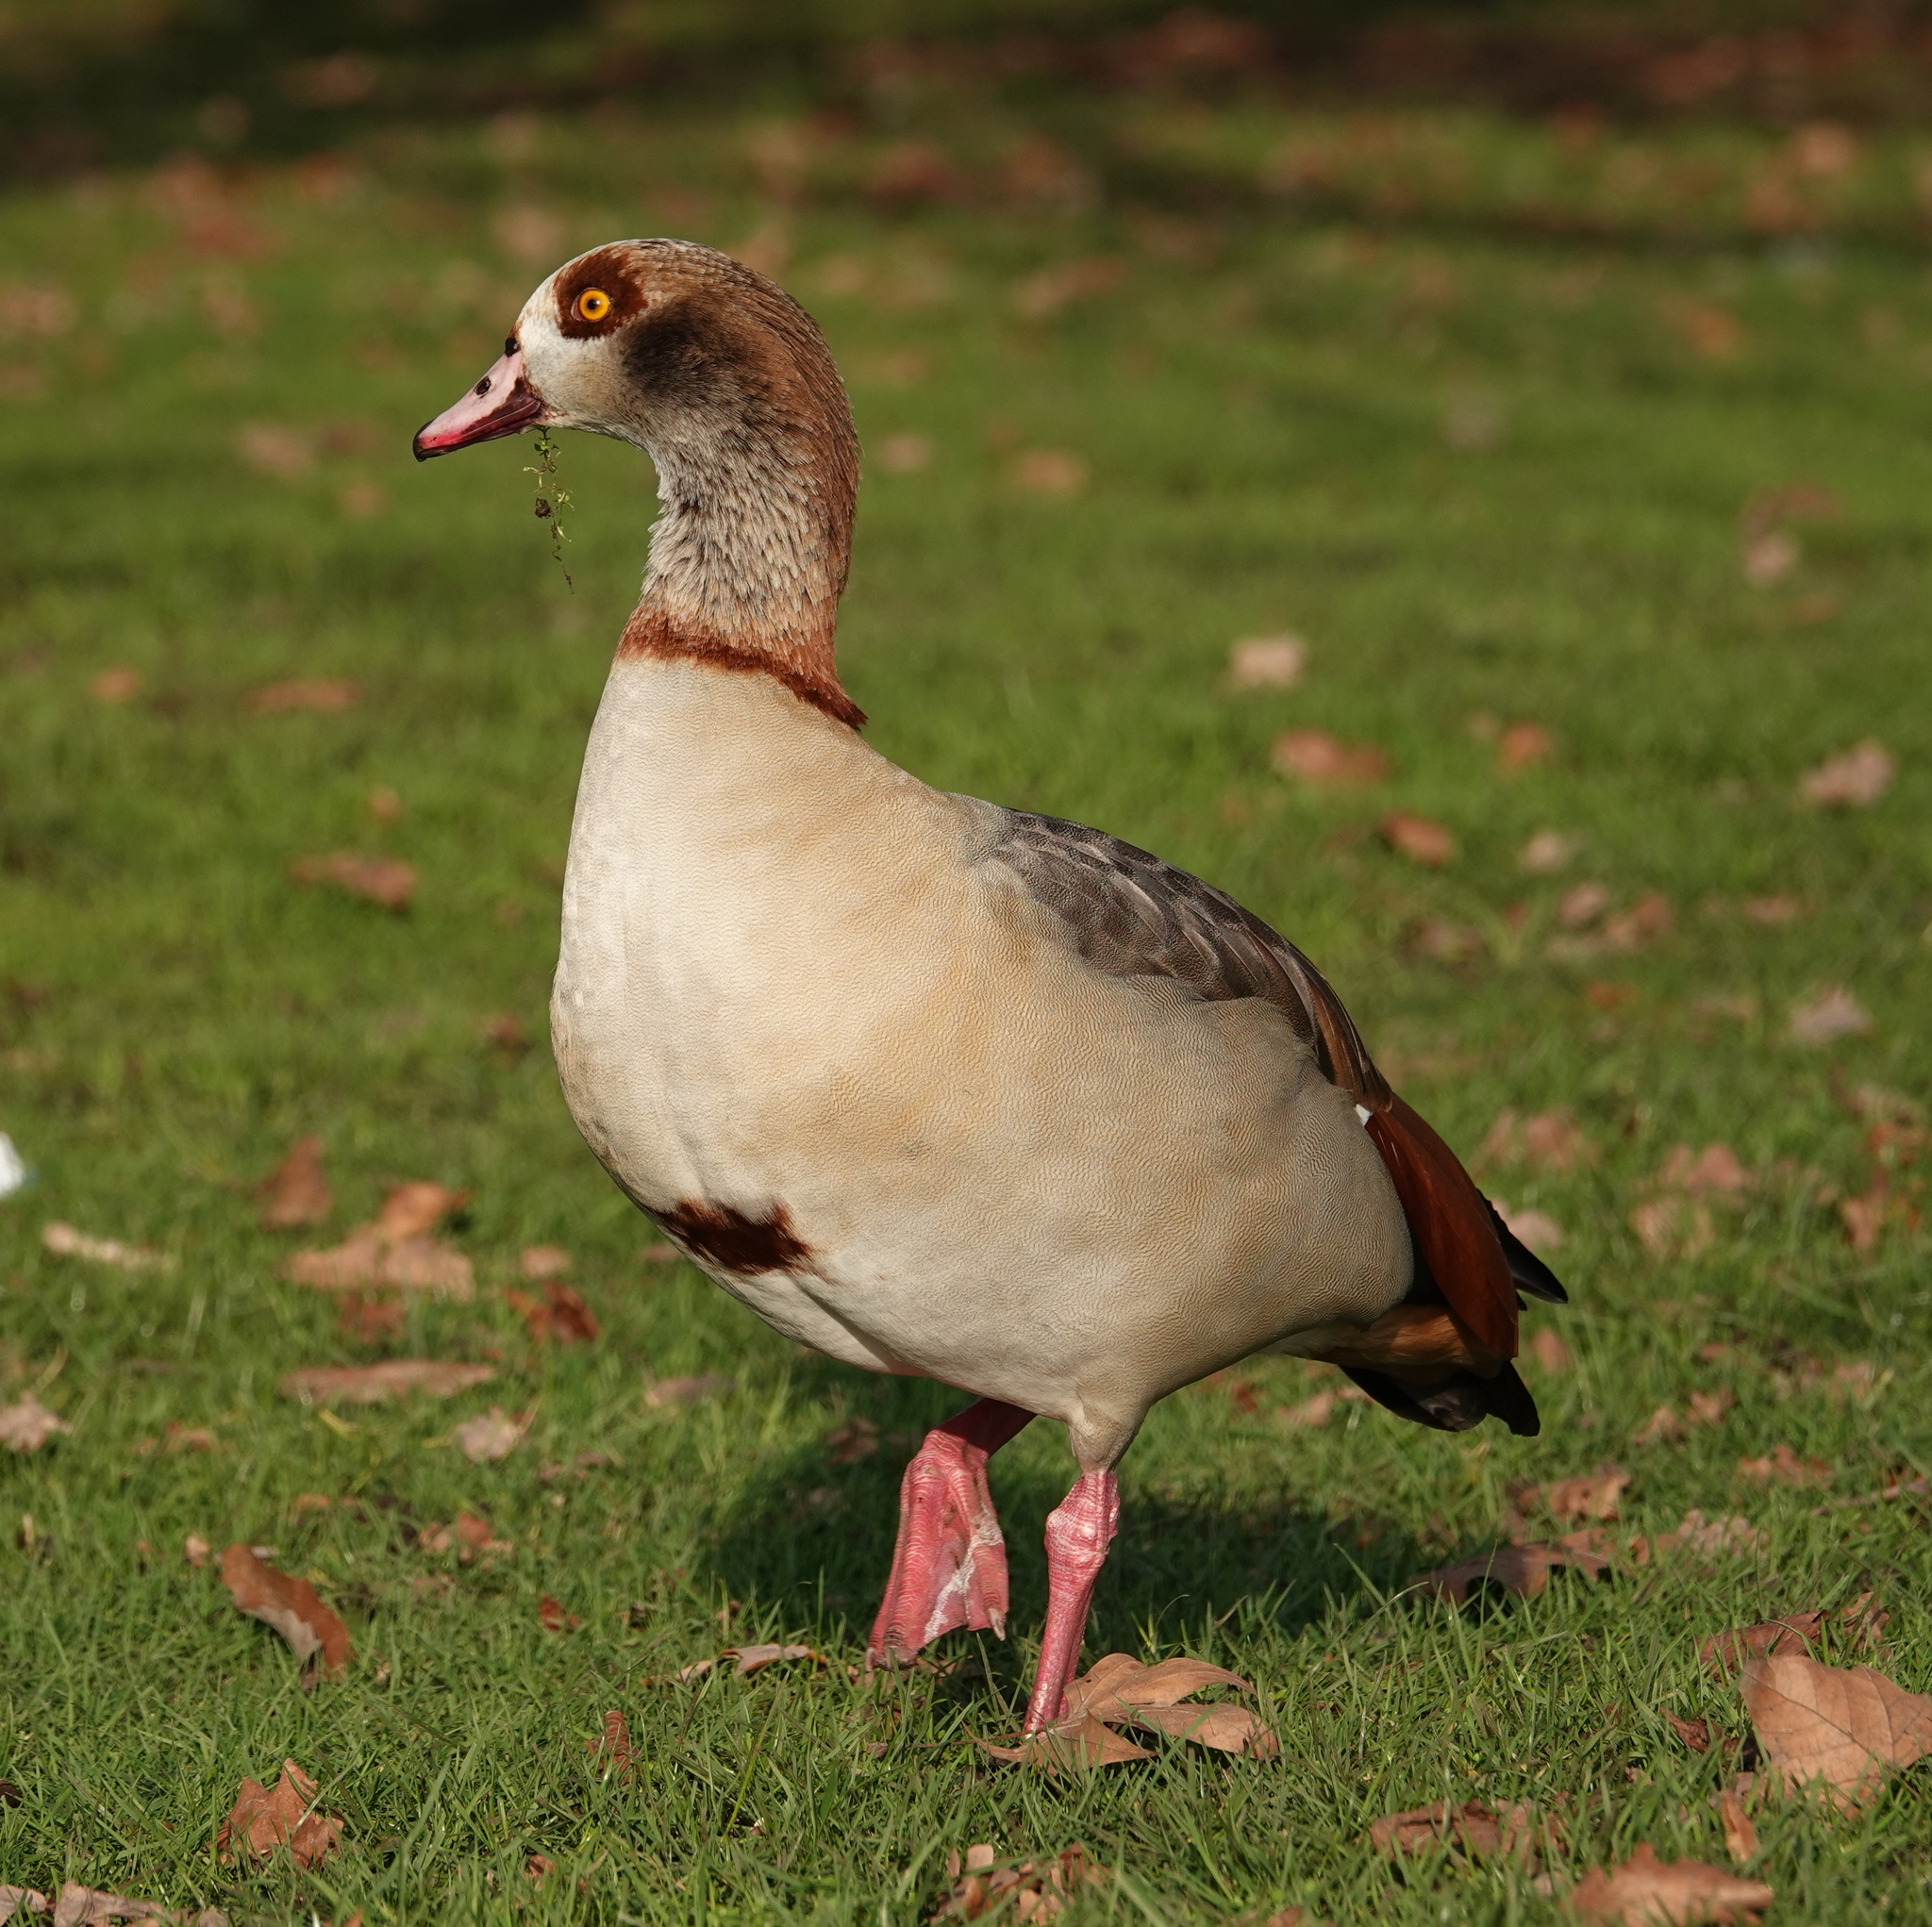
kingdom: Animalia
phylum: Chordata
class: Aves
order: Anseriformes
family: Anatidae
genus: Alopochen
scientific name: Alopochen aegyptiaca
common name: Egyptian goose
